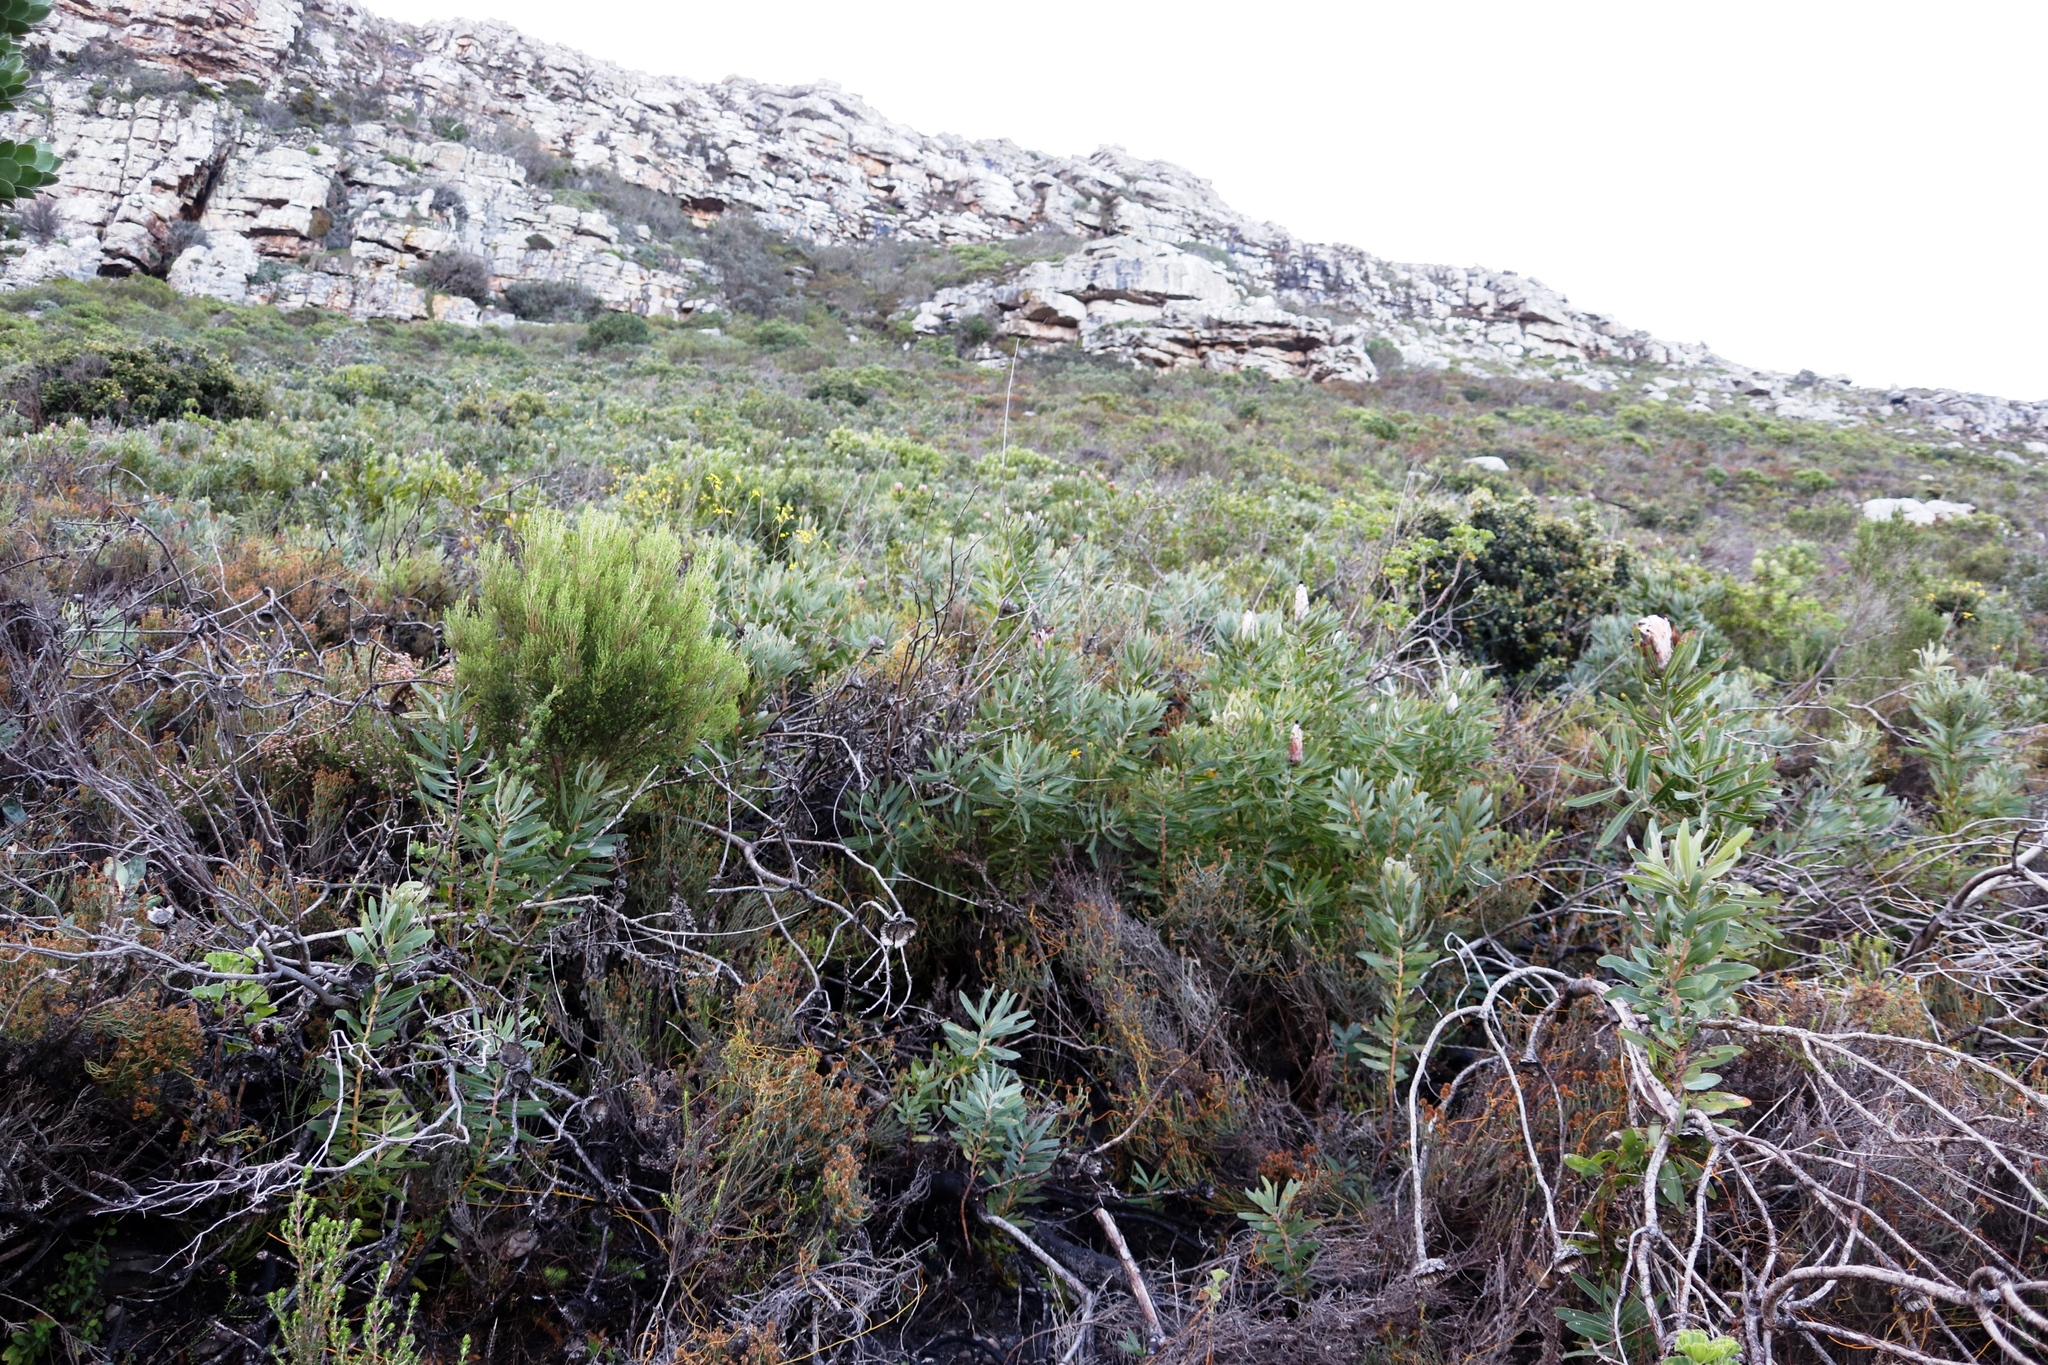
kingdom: Plantae
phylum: Tracheophyta
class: Magnoliopsida
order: Proteales
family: Proteaceae
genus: Protea
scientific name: Protea lepidocarpodendron
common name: Black-bearded protea
